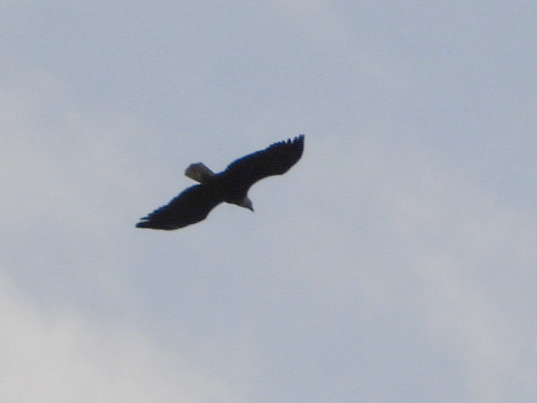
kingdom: Animalia
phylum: Chordata
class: Aves
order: Accipitriformes
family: Accipitridae
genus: Haliaeetus
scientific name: Haliaeetus leucocephalus
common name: Bald eagle
